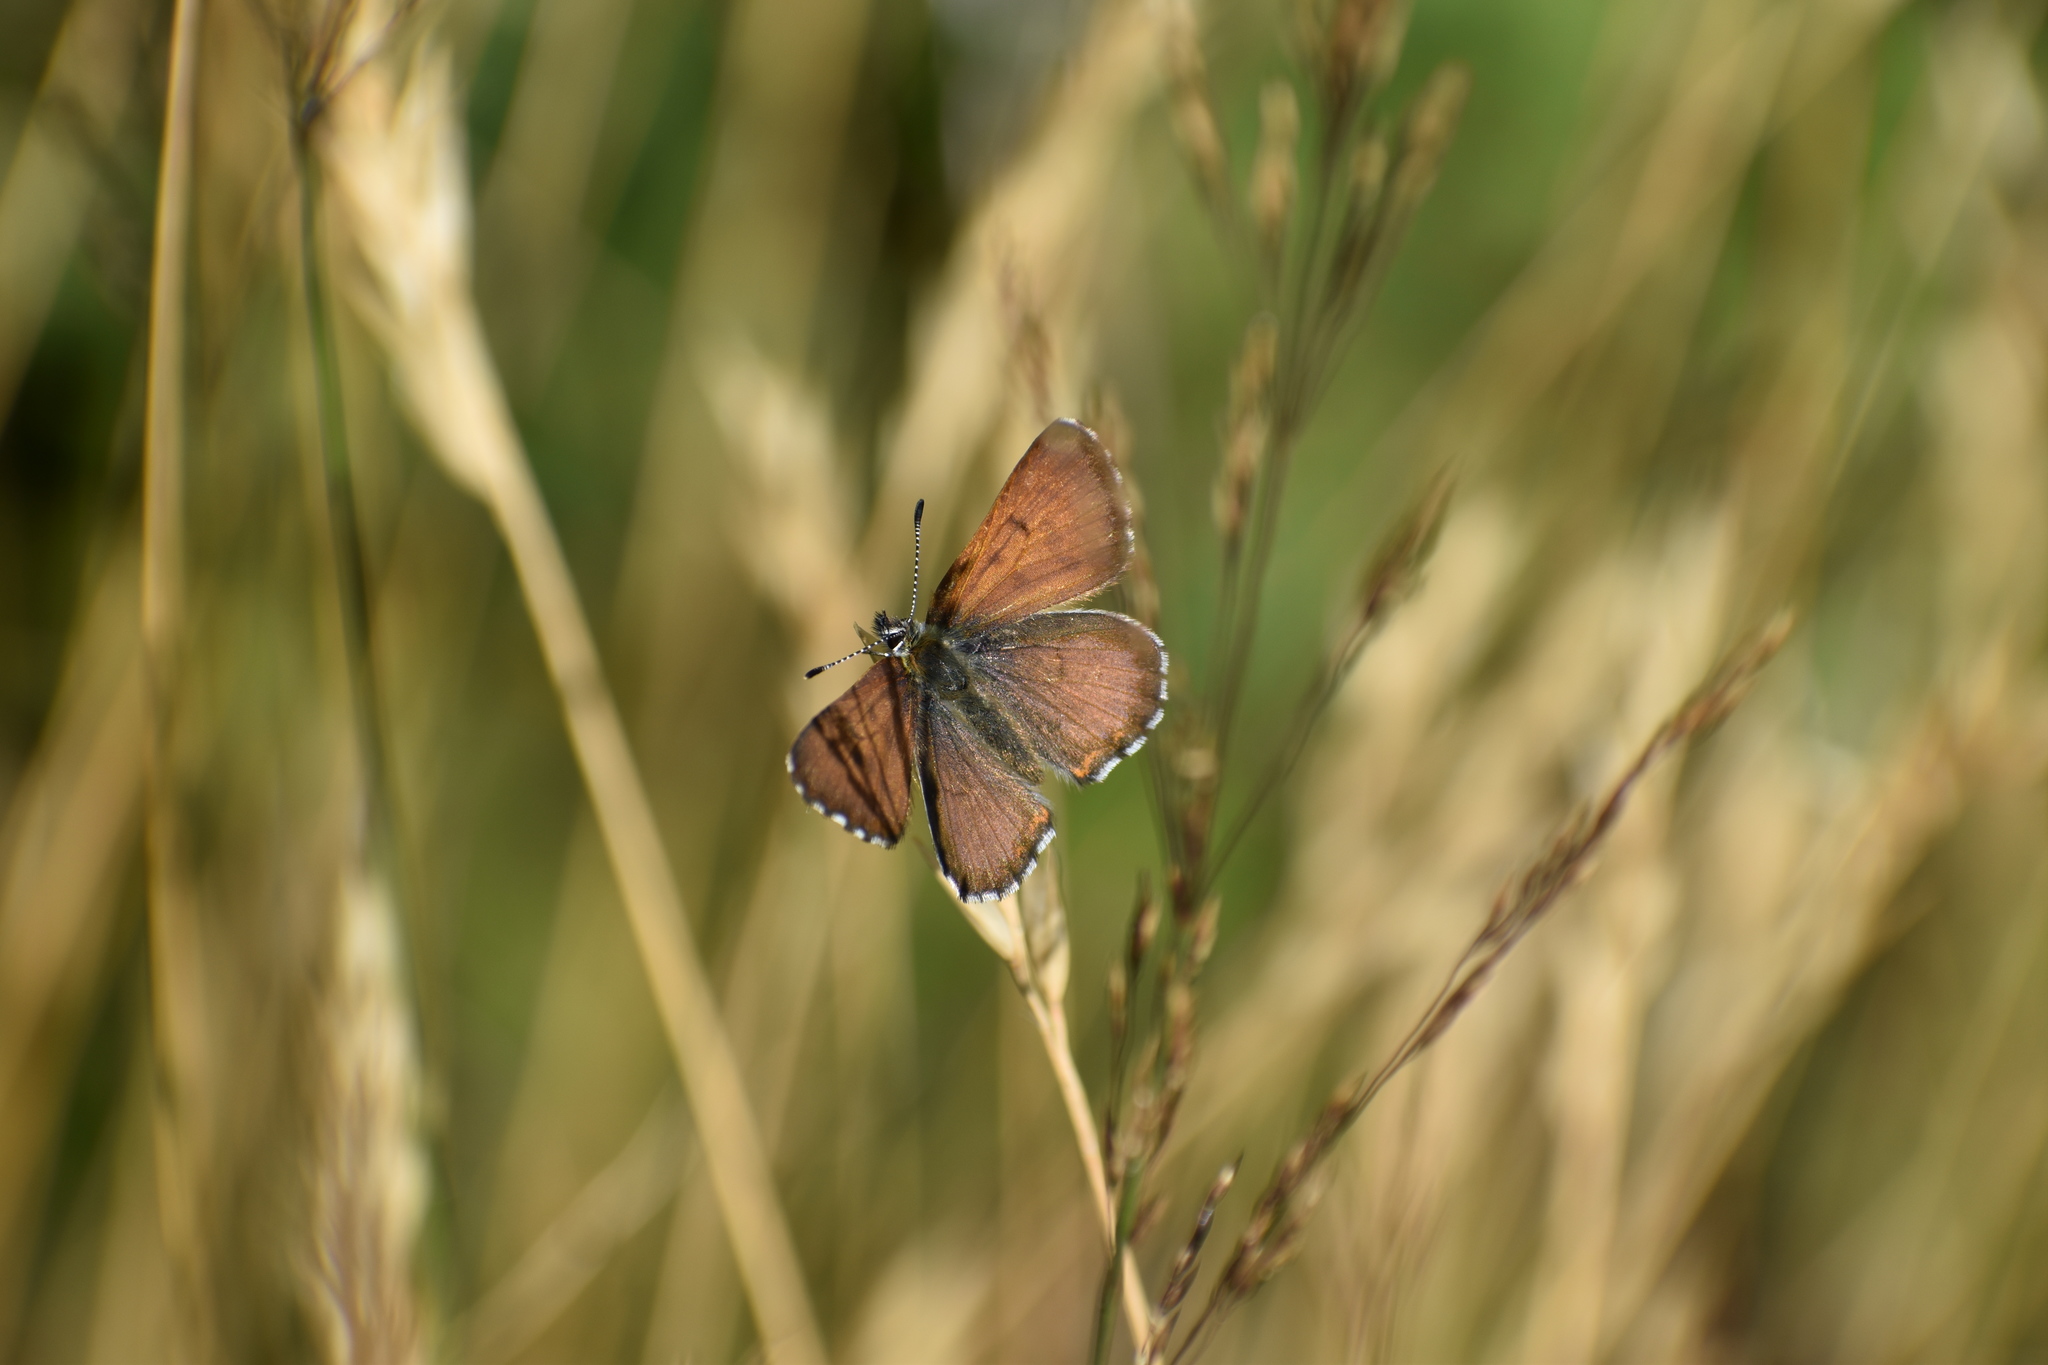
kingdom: Animalia
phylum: Arthropoda
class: Insecta
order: Lepidoptera
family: Lycaenidae
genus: Tharsalea
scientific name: Tharsalea mariposa
